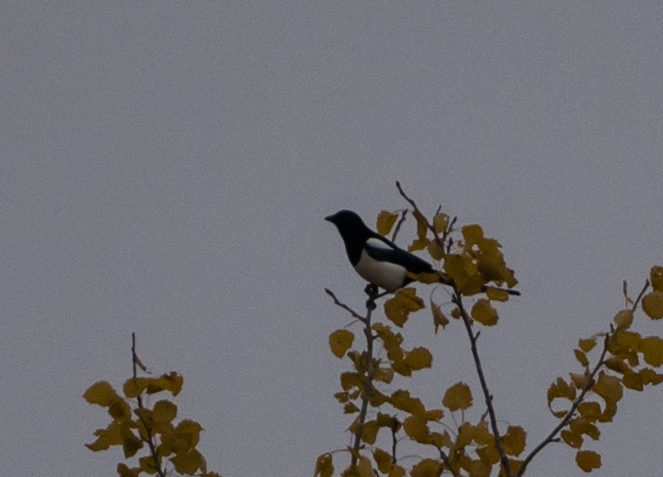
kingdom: Animalia
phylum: Chordata
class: Aves
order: Passeriformes
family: Corvidae
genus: Pica
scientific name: Pica pica
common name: Eurasian magpie
